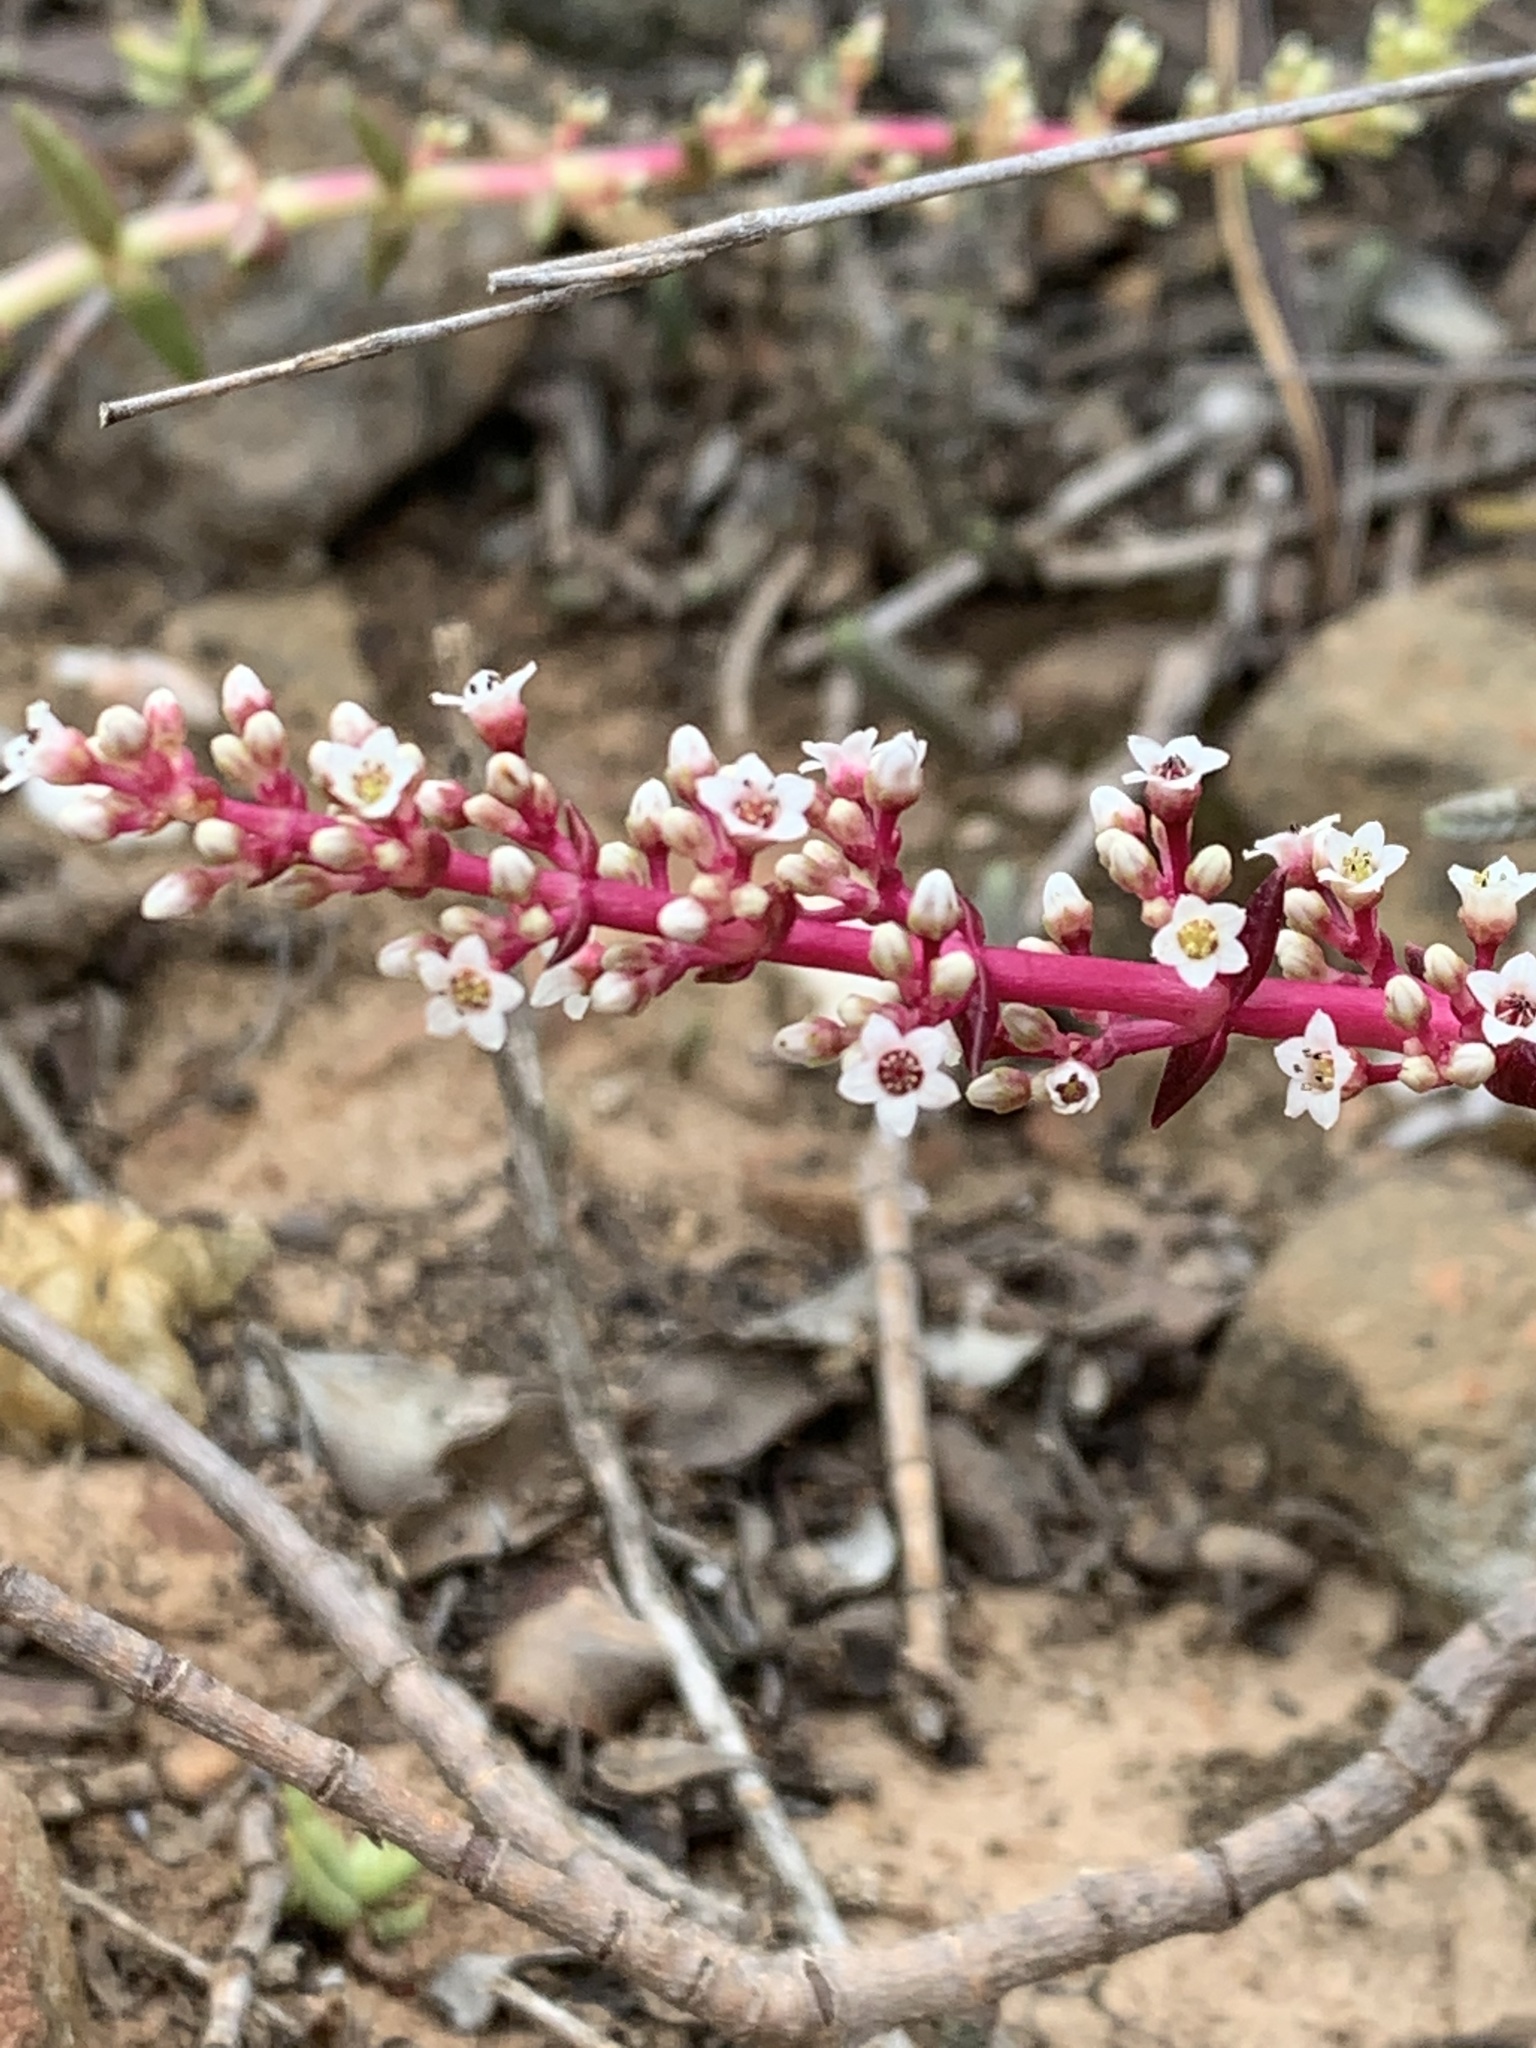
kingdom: Plantae
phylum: Tracheophyta
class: Magnoliopsida
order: Saxifragales
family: Crassulaceae
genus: Crassula
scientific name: Crassula capitella
